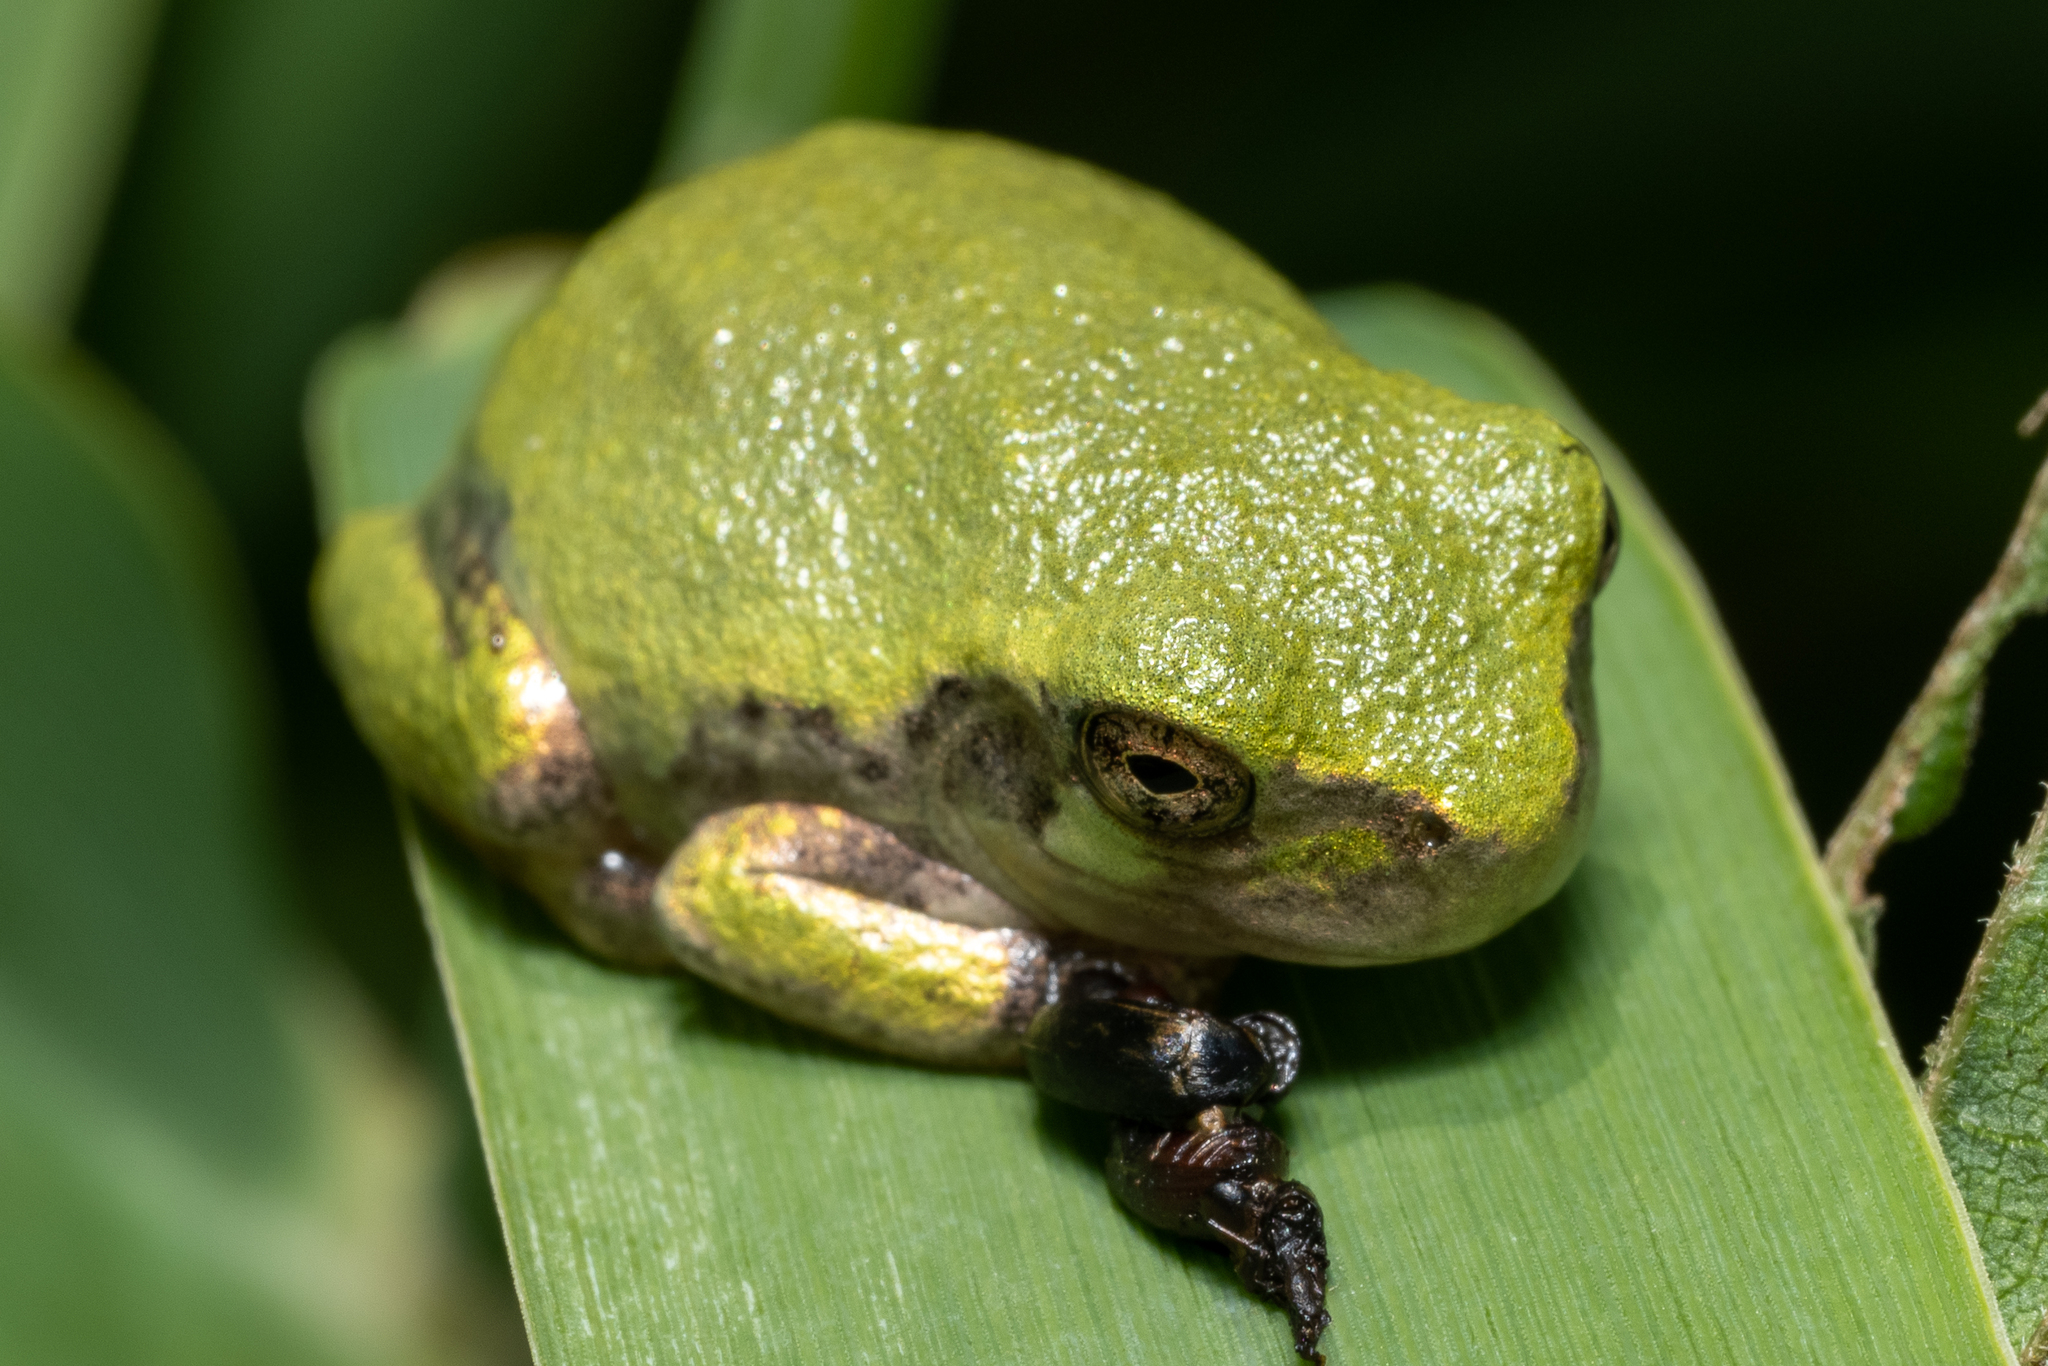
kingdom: Animalia
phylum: Chordata
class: Amphibia
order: Anura
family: Hylidae
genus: Hyla
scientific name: Hyla
